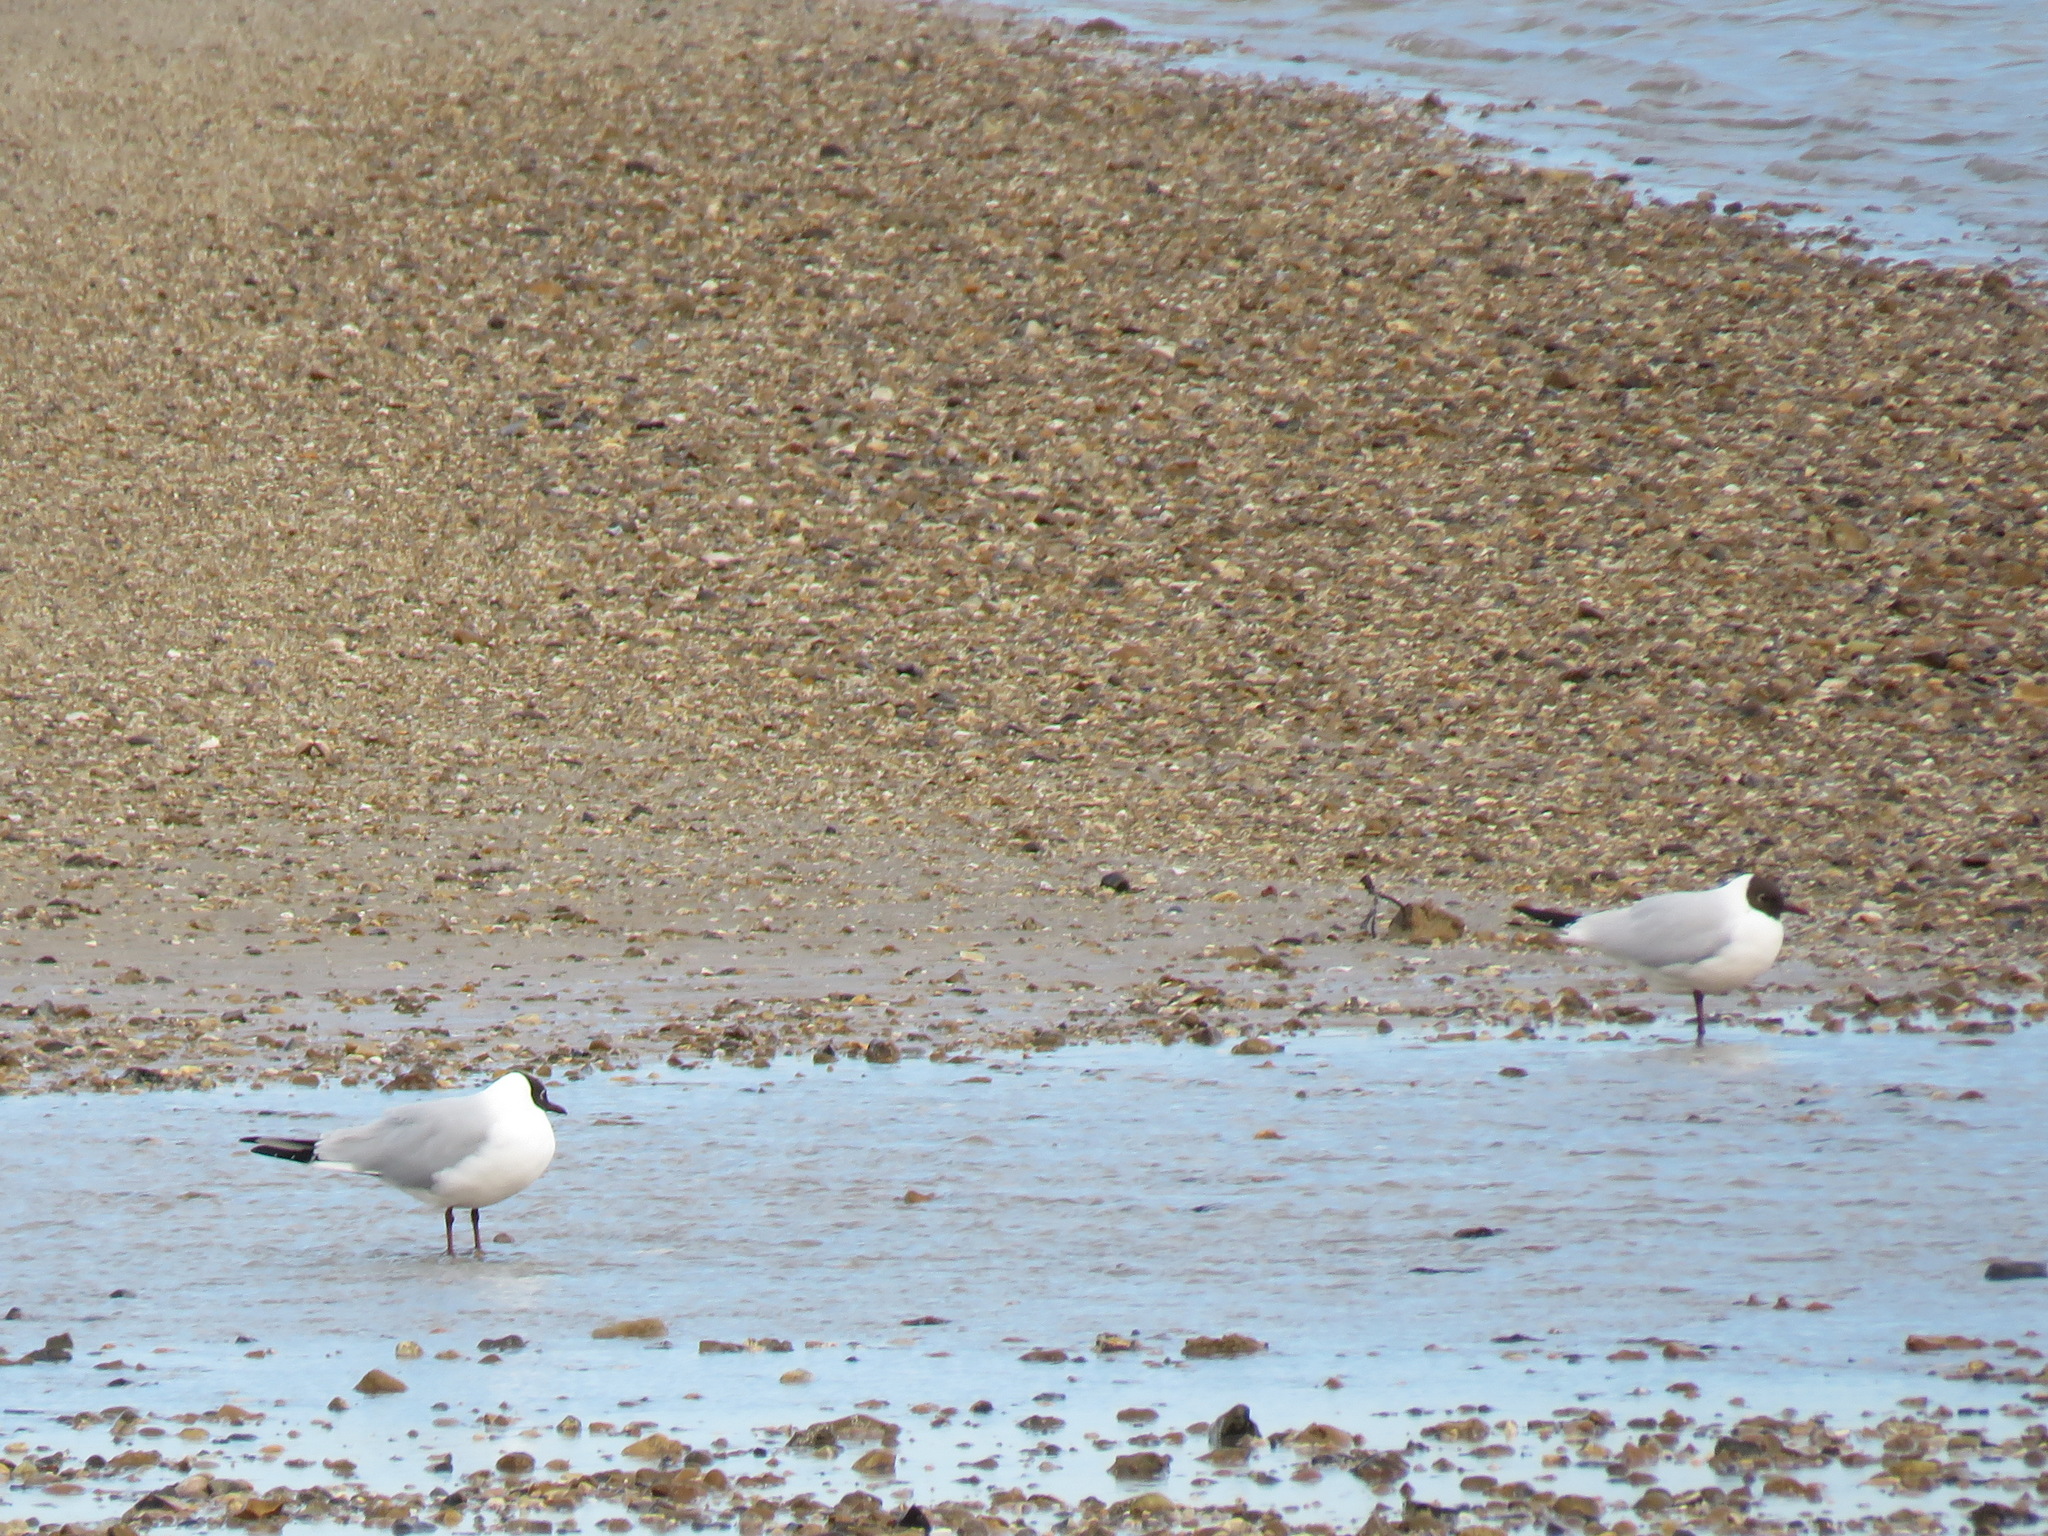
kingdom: Animalia
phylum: Chordata
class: Aves
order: Charadriiformes
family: Laridae
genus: Chroicocephalus
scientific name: Chroicocephalus ridibundus
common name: Black-headed gull
